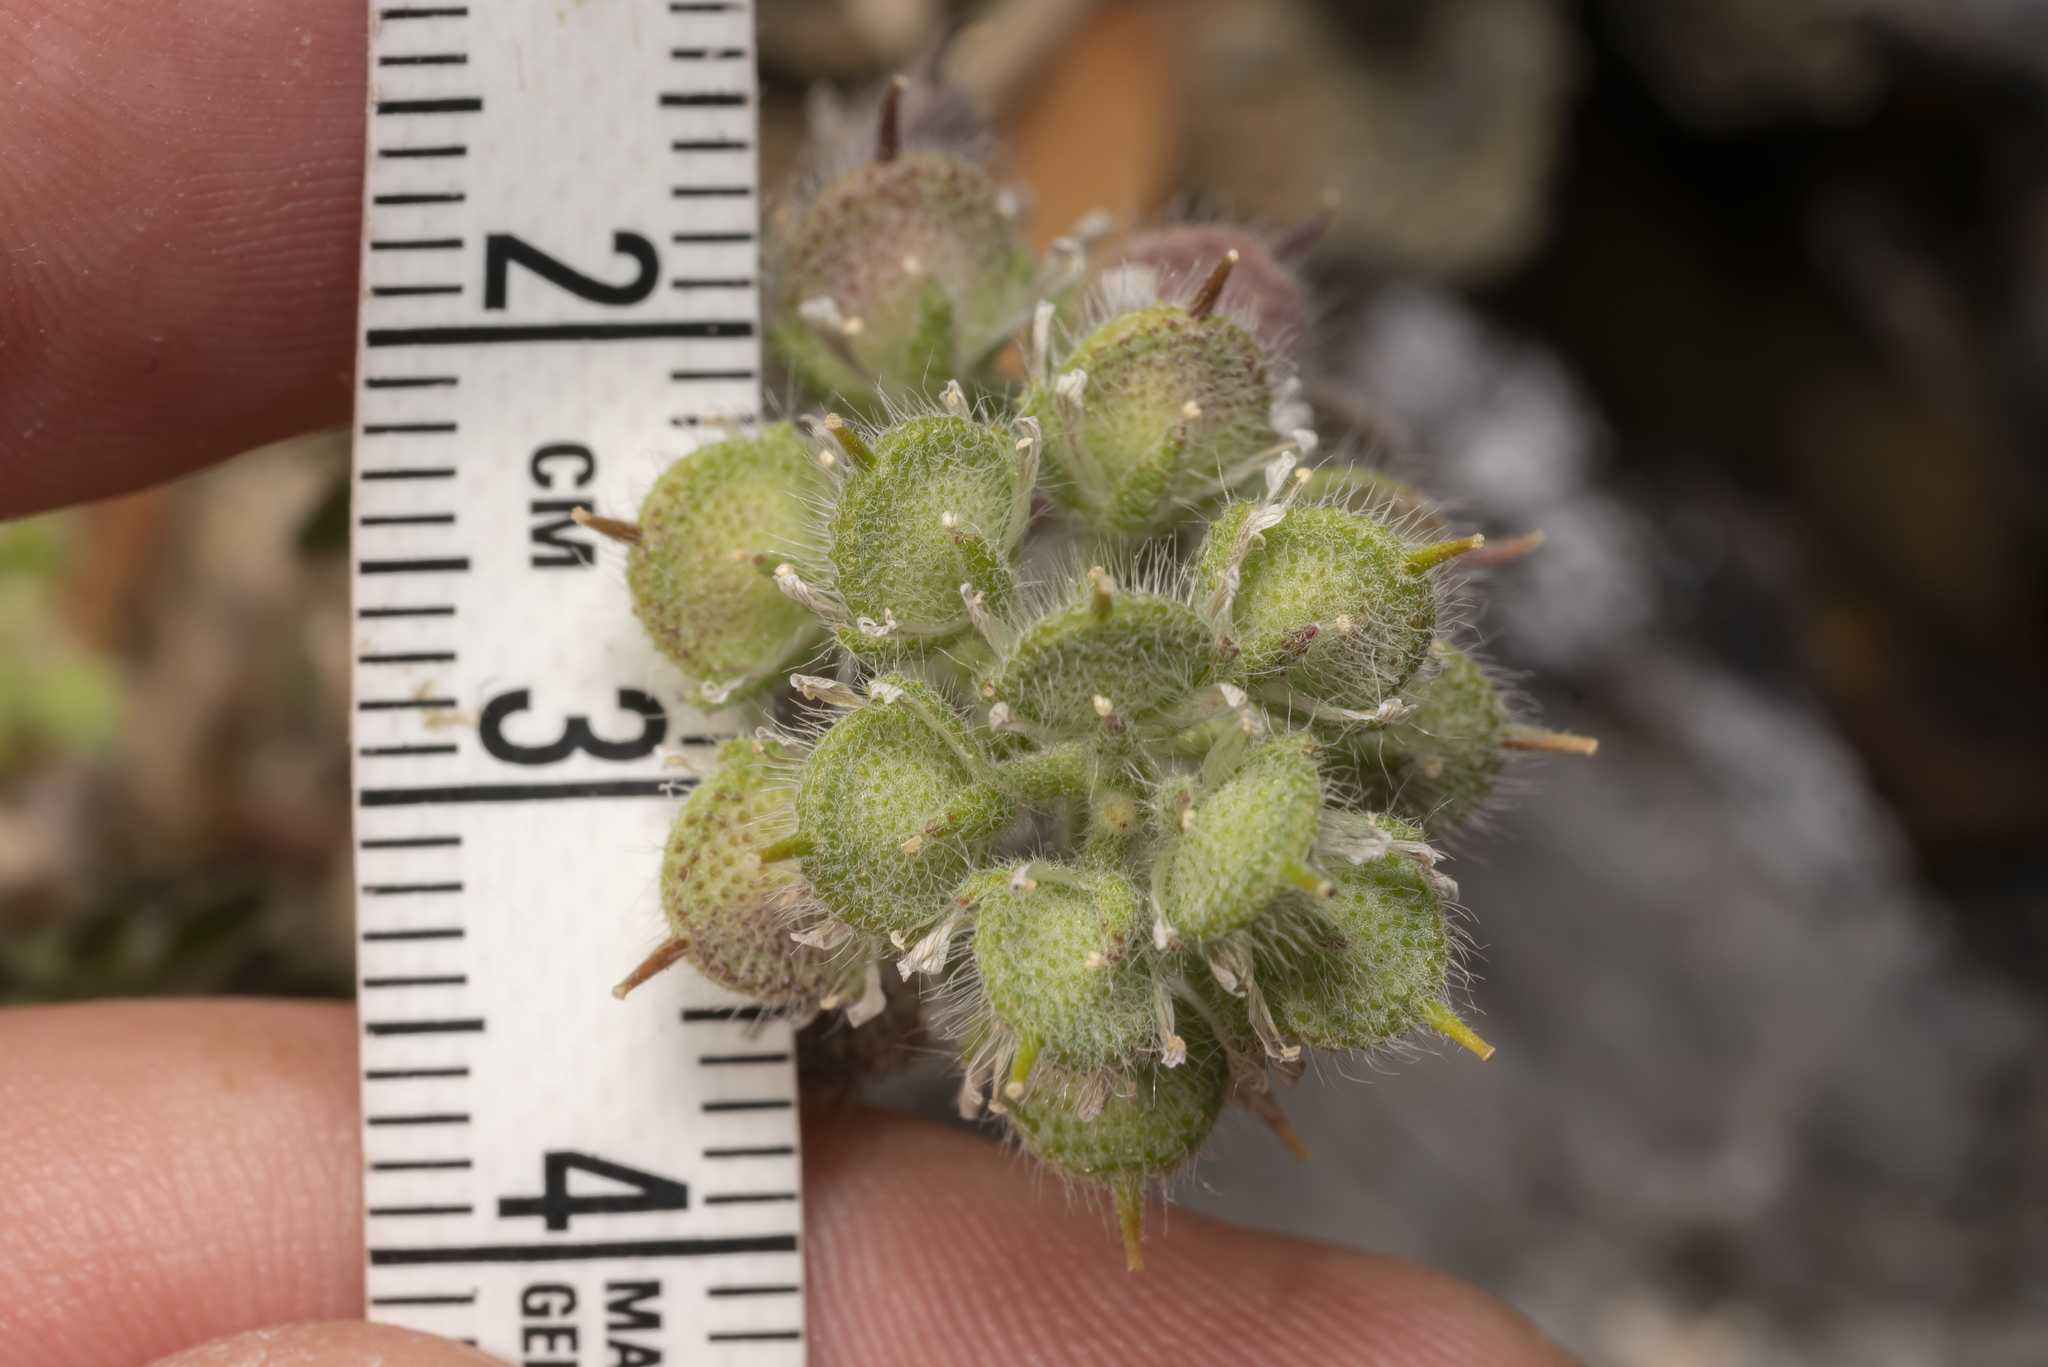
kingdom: Plantae
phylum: Tracheophyta
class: Magnoliopsida
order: Brassicales
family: Brassicaceae
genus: Alyssum
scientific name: Alyssum pogonocarpum
